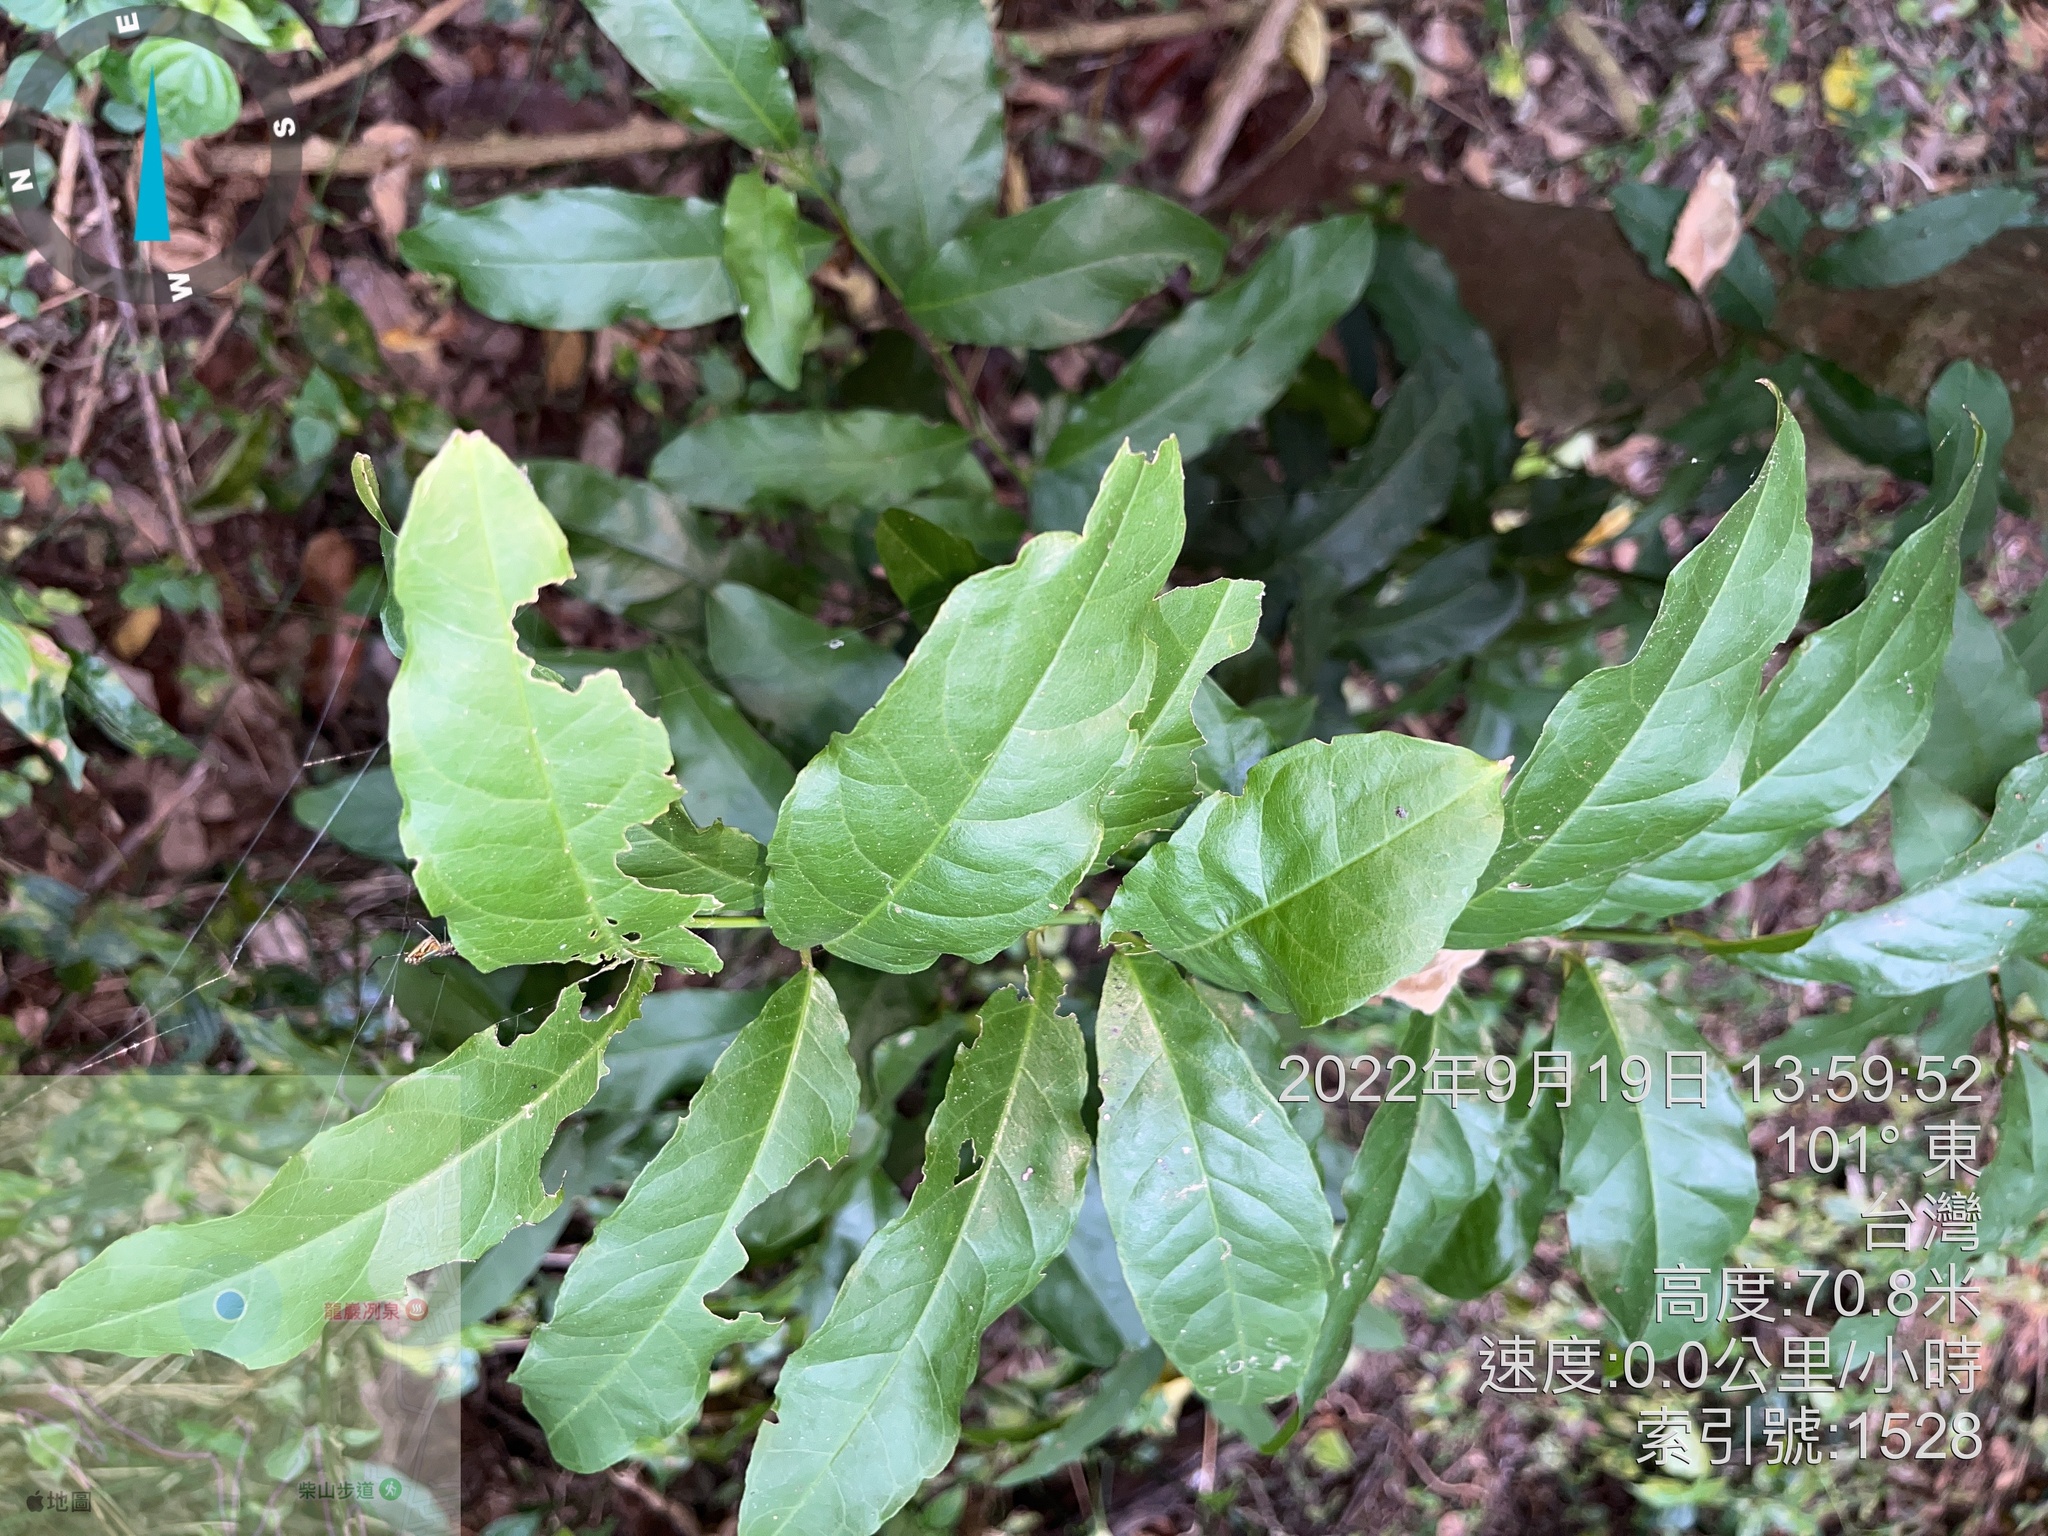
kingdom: Plantae
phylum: Tracheophyta
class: Magnoliopsida
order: Brassicales
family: Capparaceae
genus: Capparis
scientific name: Capparis micracantha
